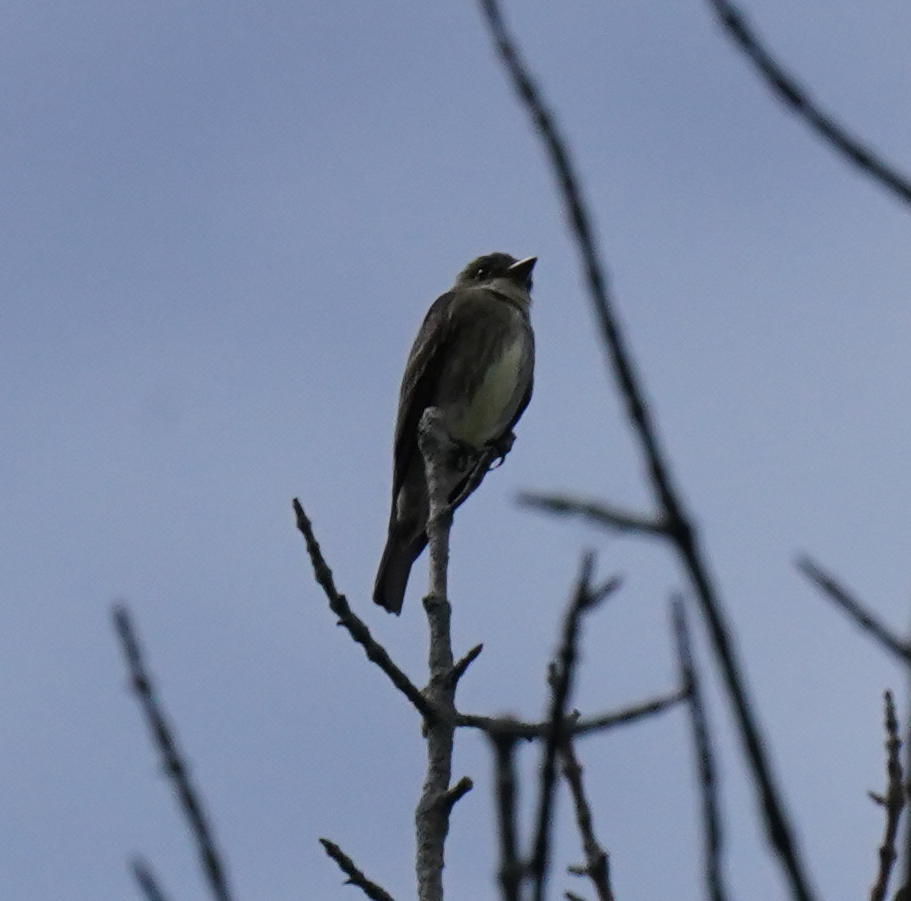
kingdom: Animalia
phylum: Chordata
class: Aves
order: Passeriformes
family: Tyrannidae
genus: Contopus
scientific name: Contopus cooperi
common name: Olive-sided flycatcher
